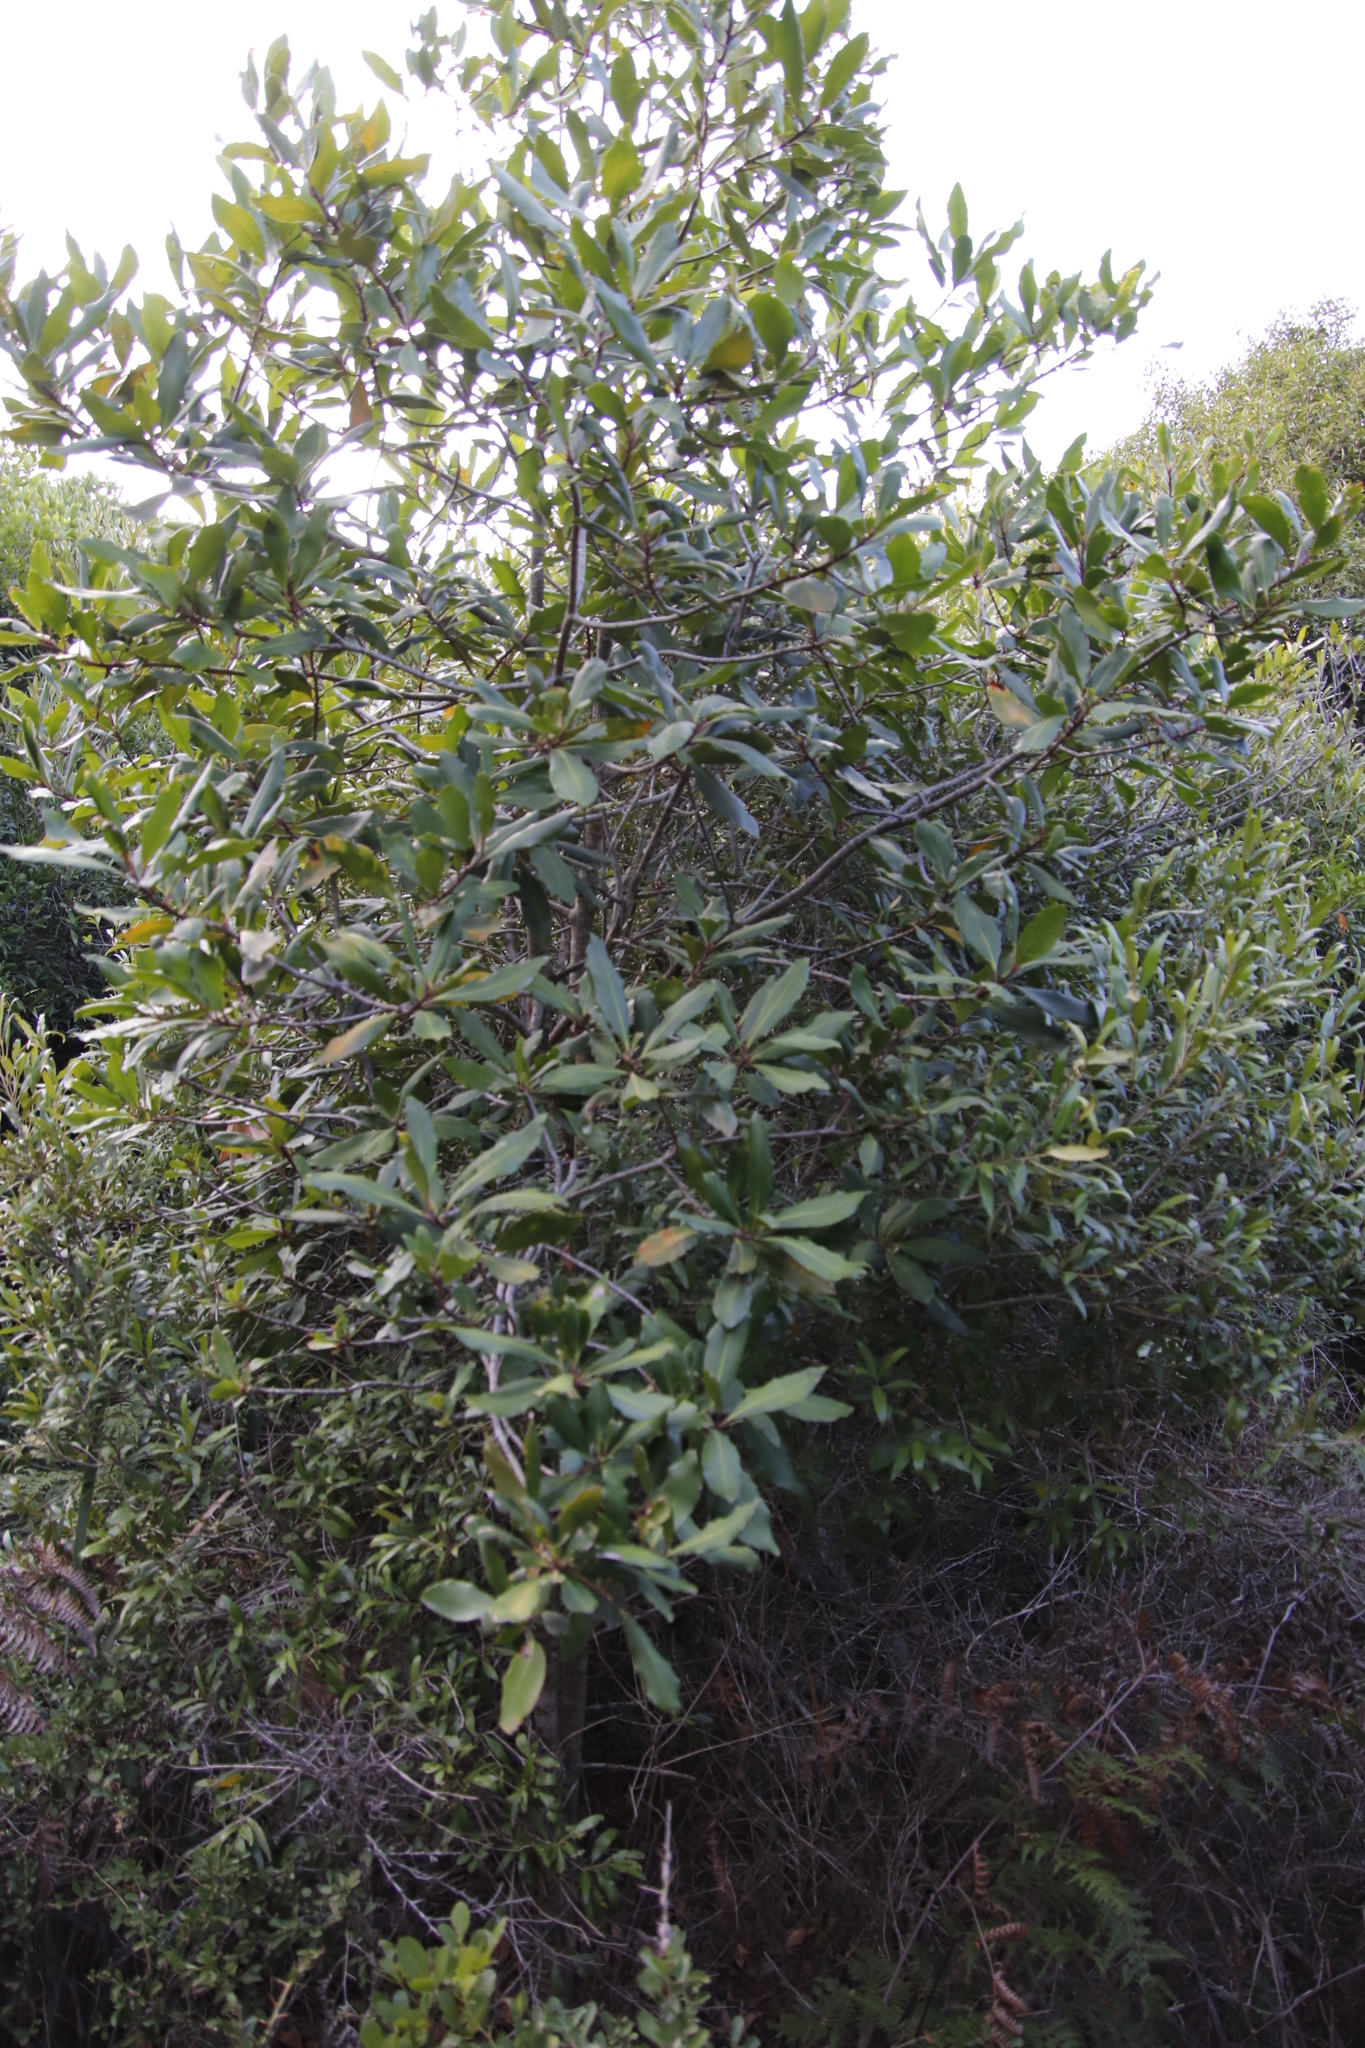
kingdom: Plantae
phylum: Tracheophyta
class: Magnoliopsida
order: Ericales
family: Primulaceae
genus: Myrsine
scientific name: Myrsine melanophloeos
